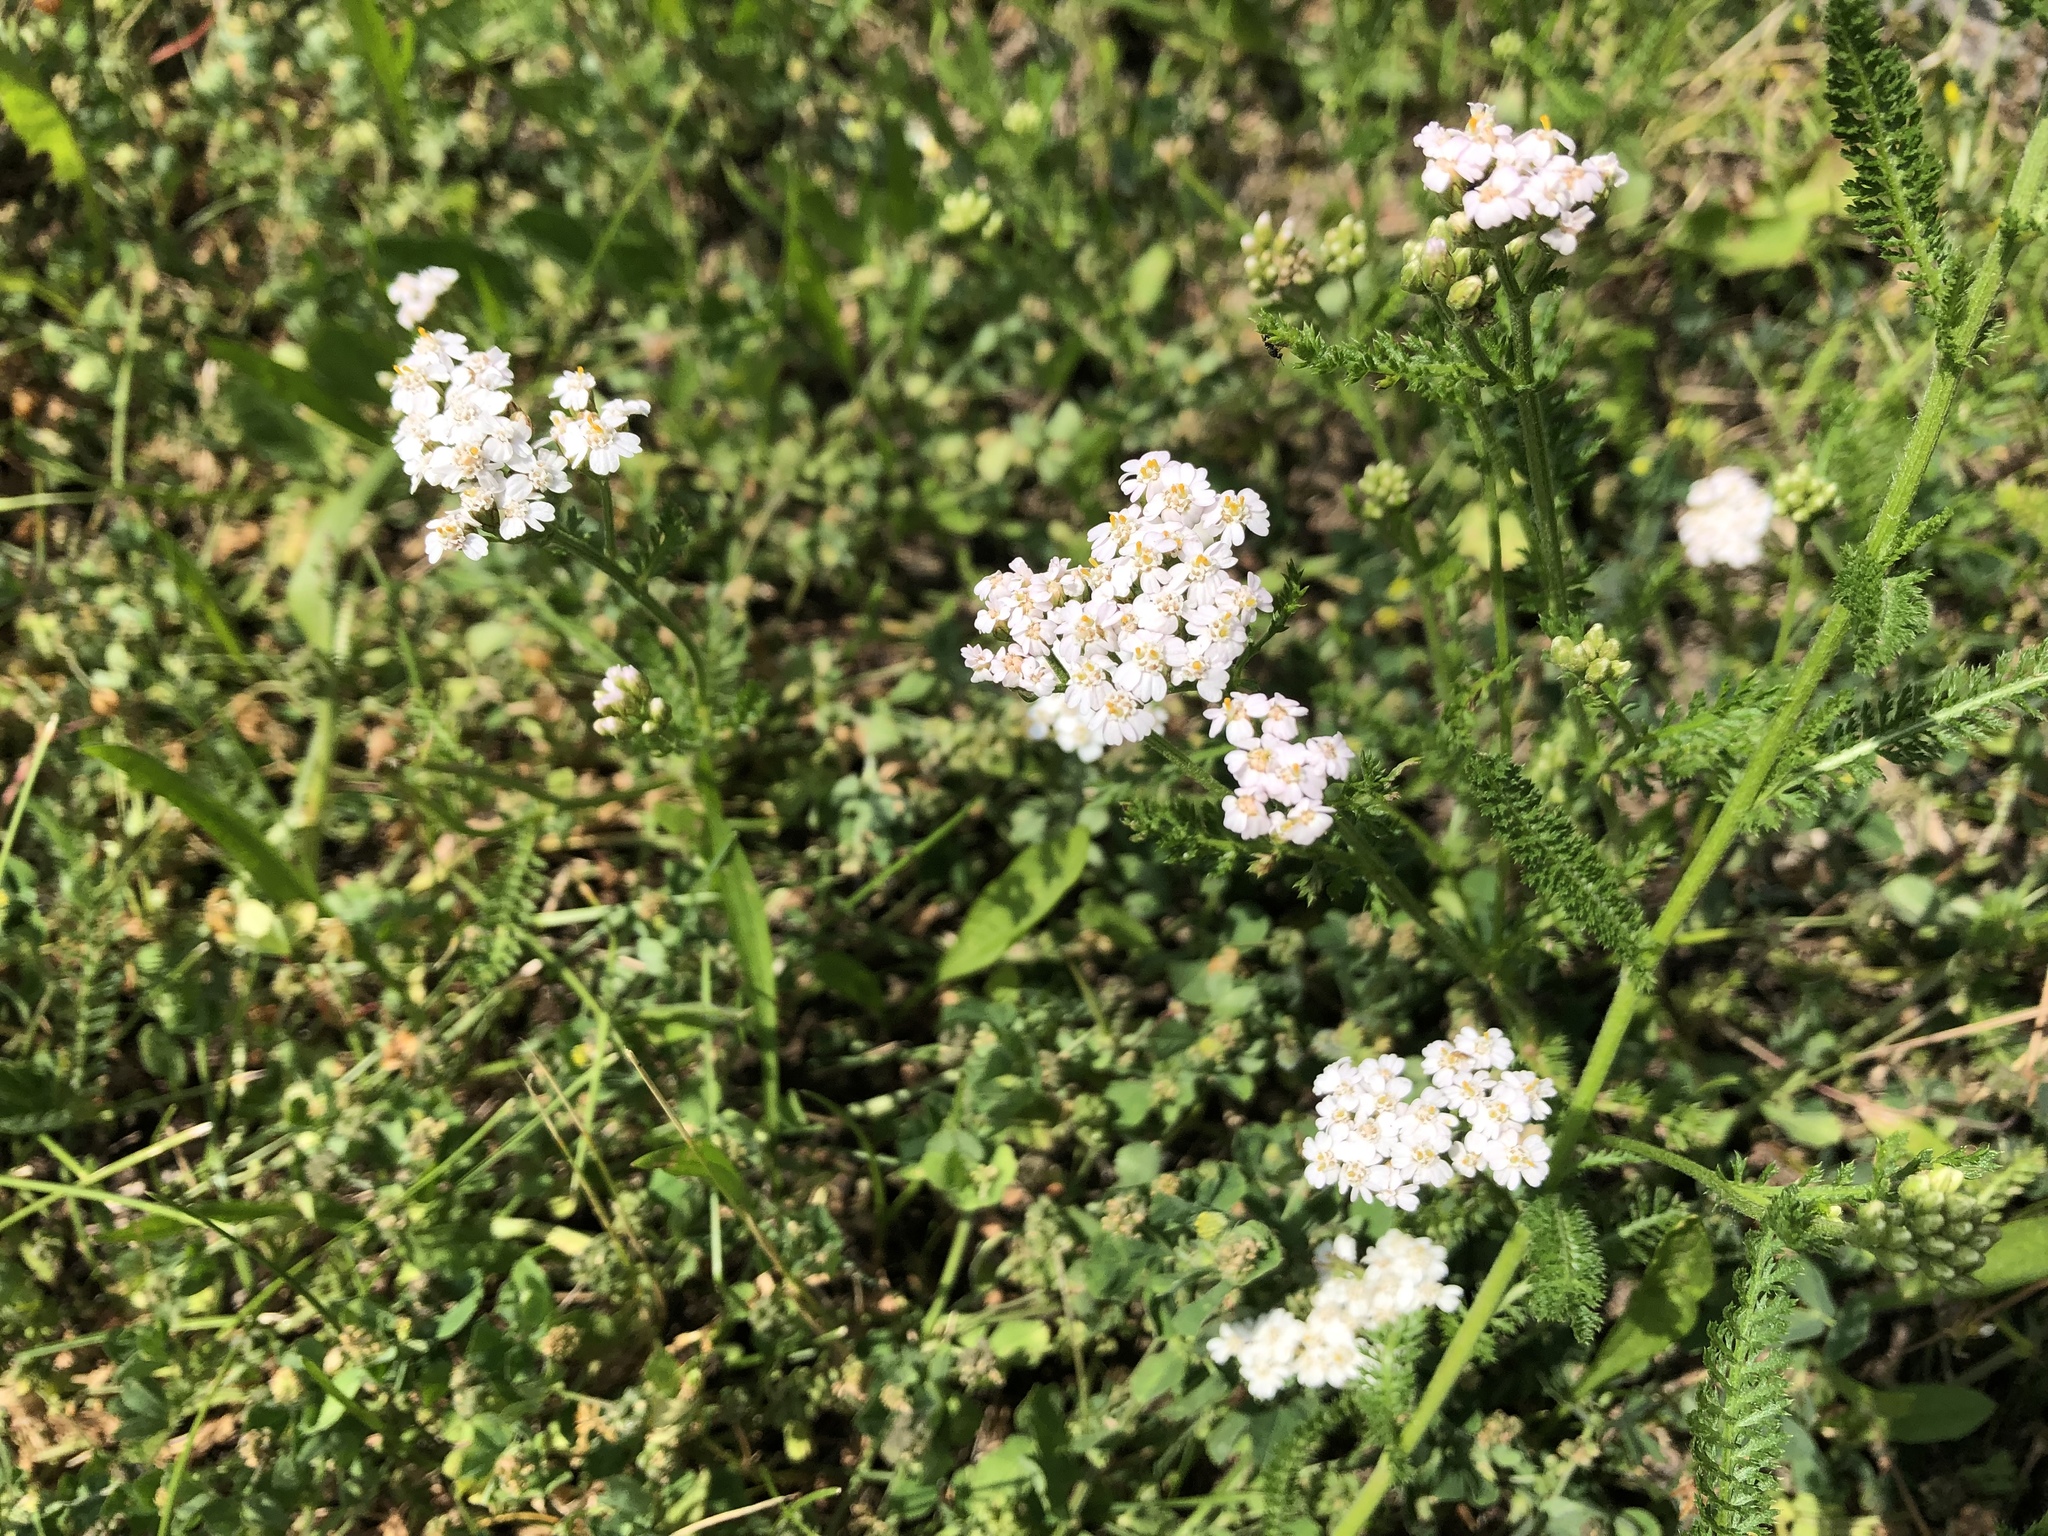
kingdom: Plantae
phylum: Tracheophyta
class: Magnoliopsida
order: Asterales
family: Asteraceae
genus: Achillea
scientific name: Achillea millefolium
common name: Yarrow
